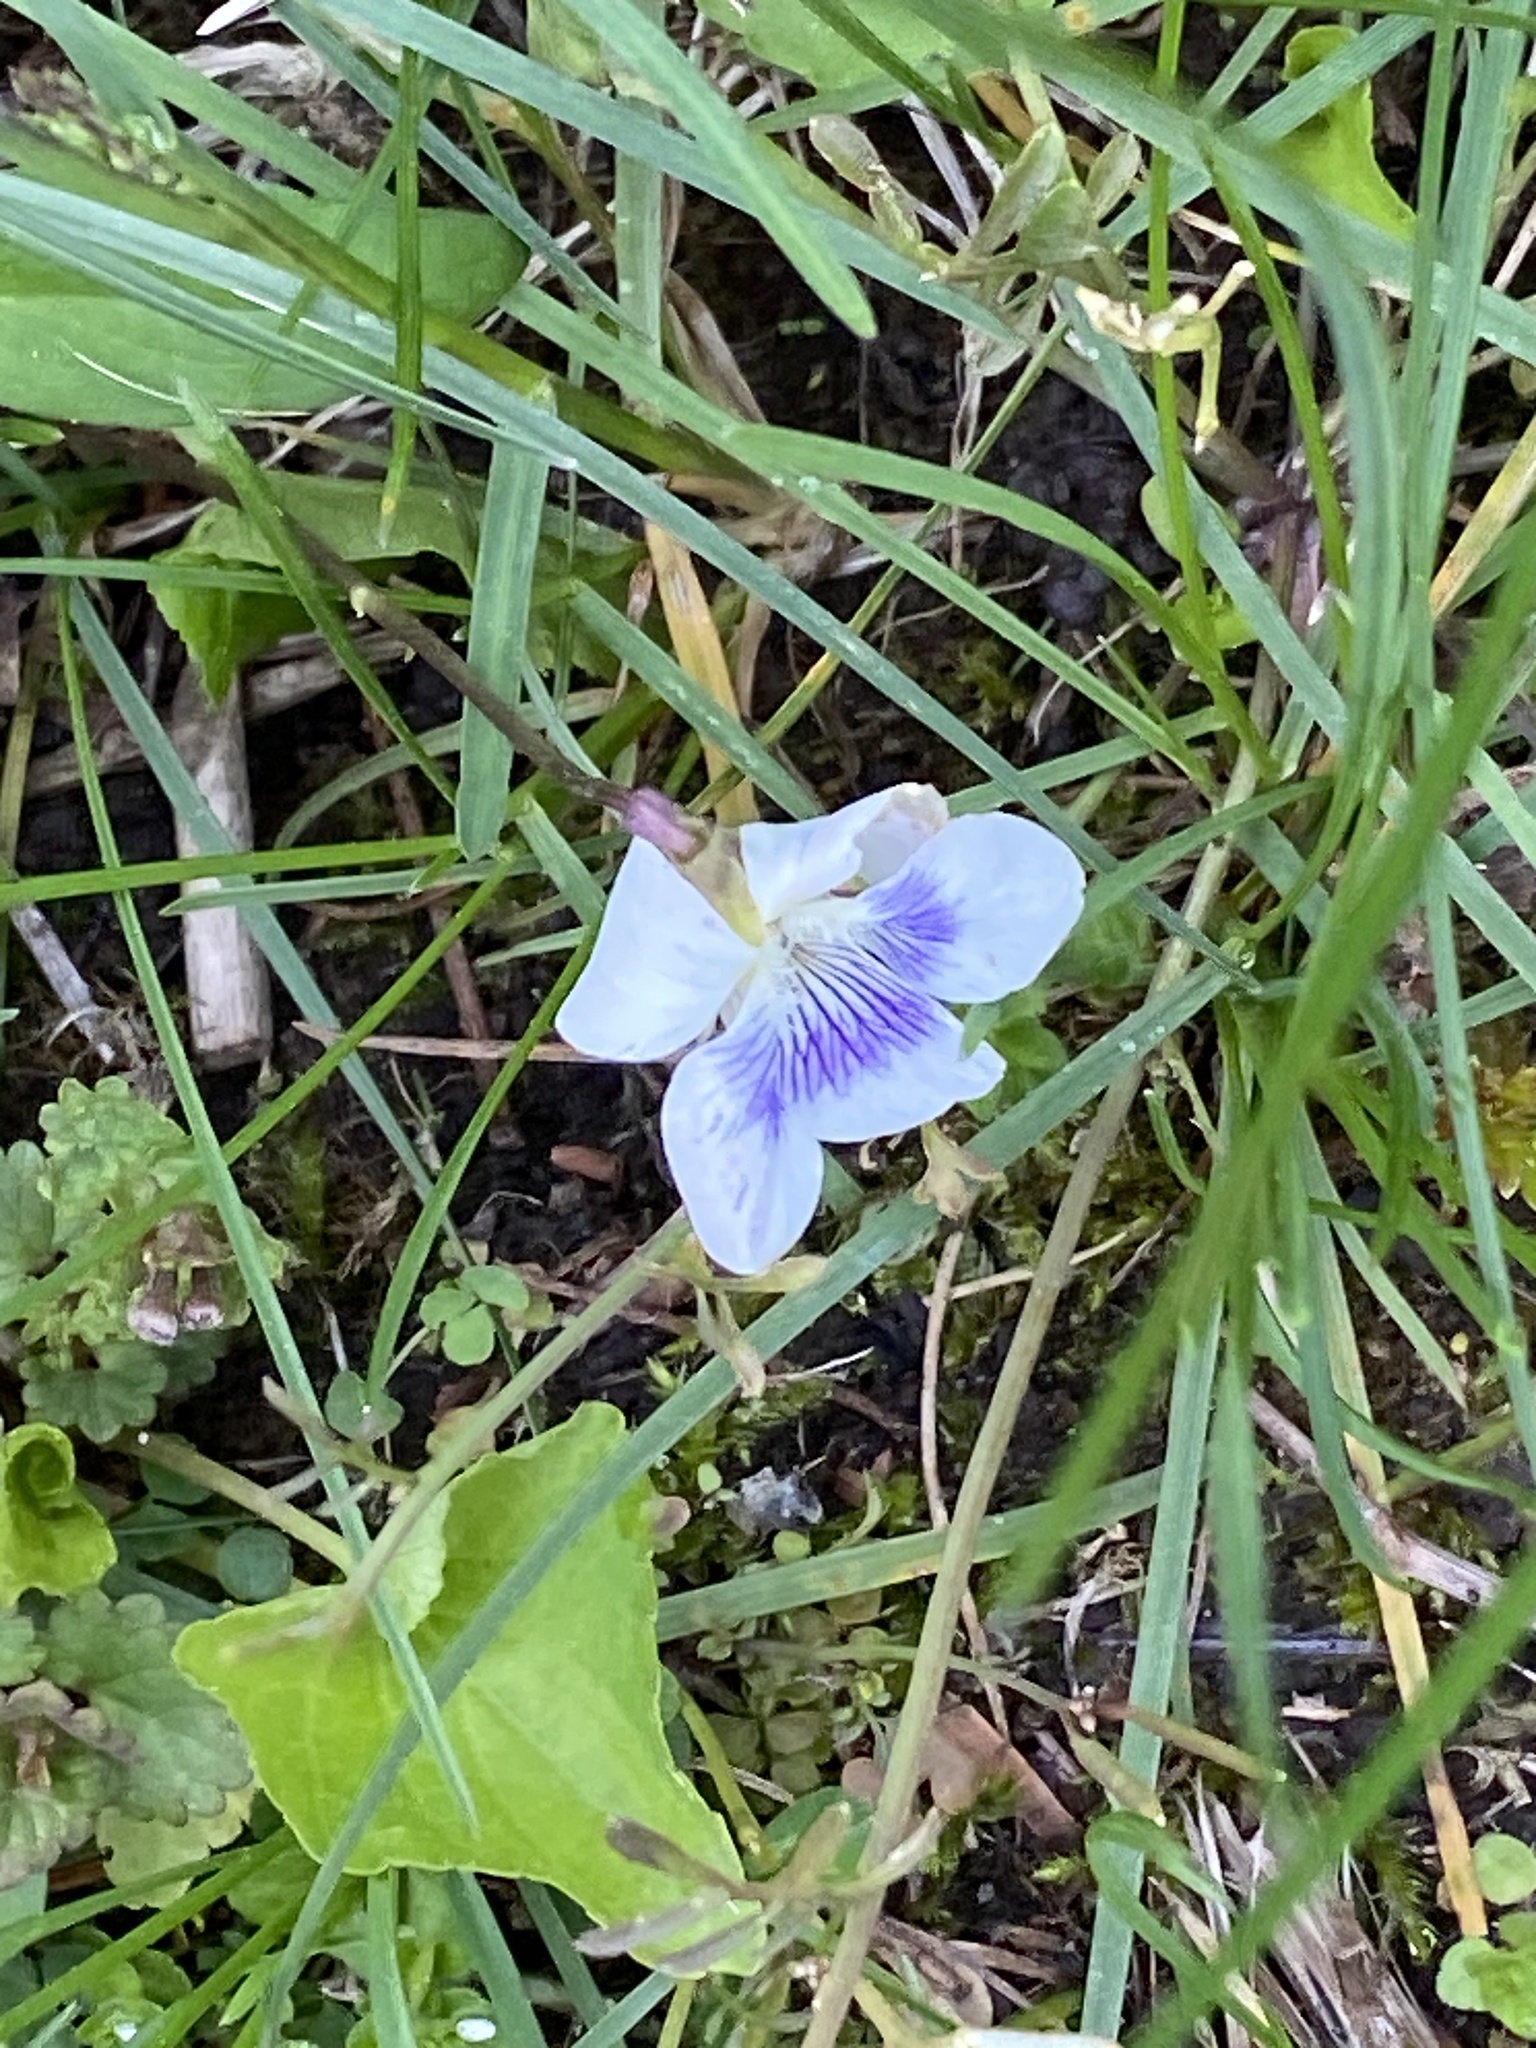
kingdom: Plantae
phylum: Tracheophyta
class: Magnoliopsida
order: Malpighiales
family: Violaceae
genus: Viola
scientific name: Viola sororia
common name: Dooryard violet
